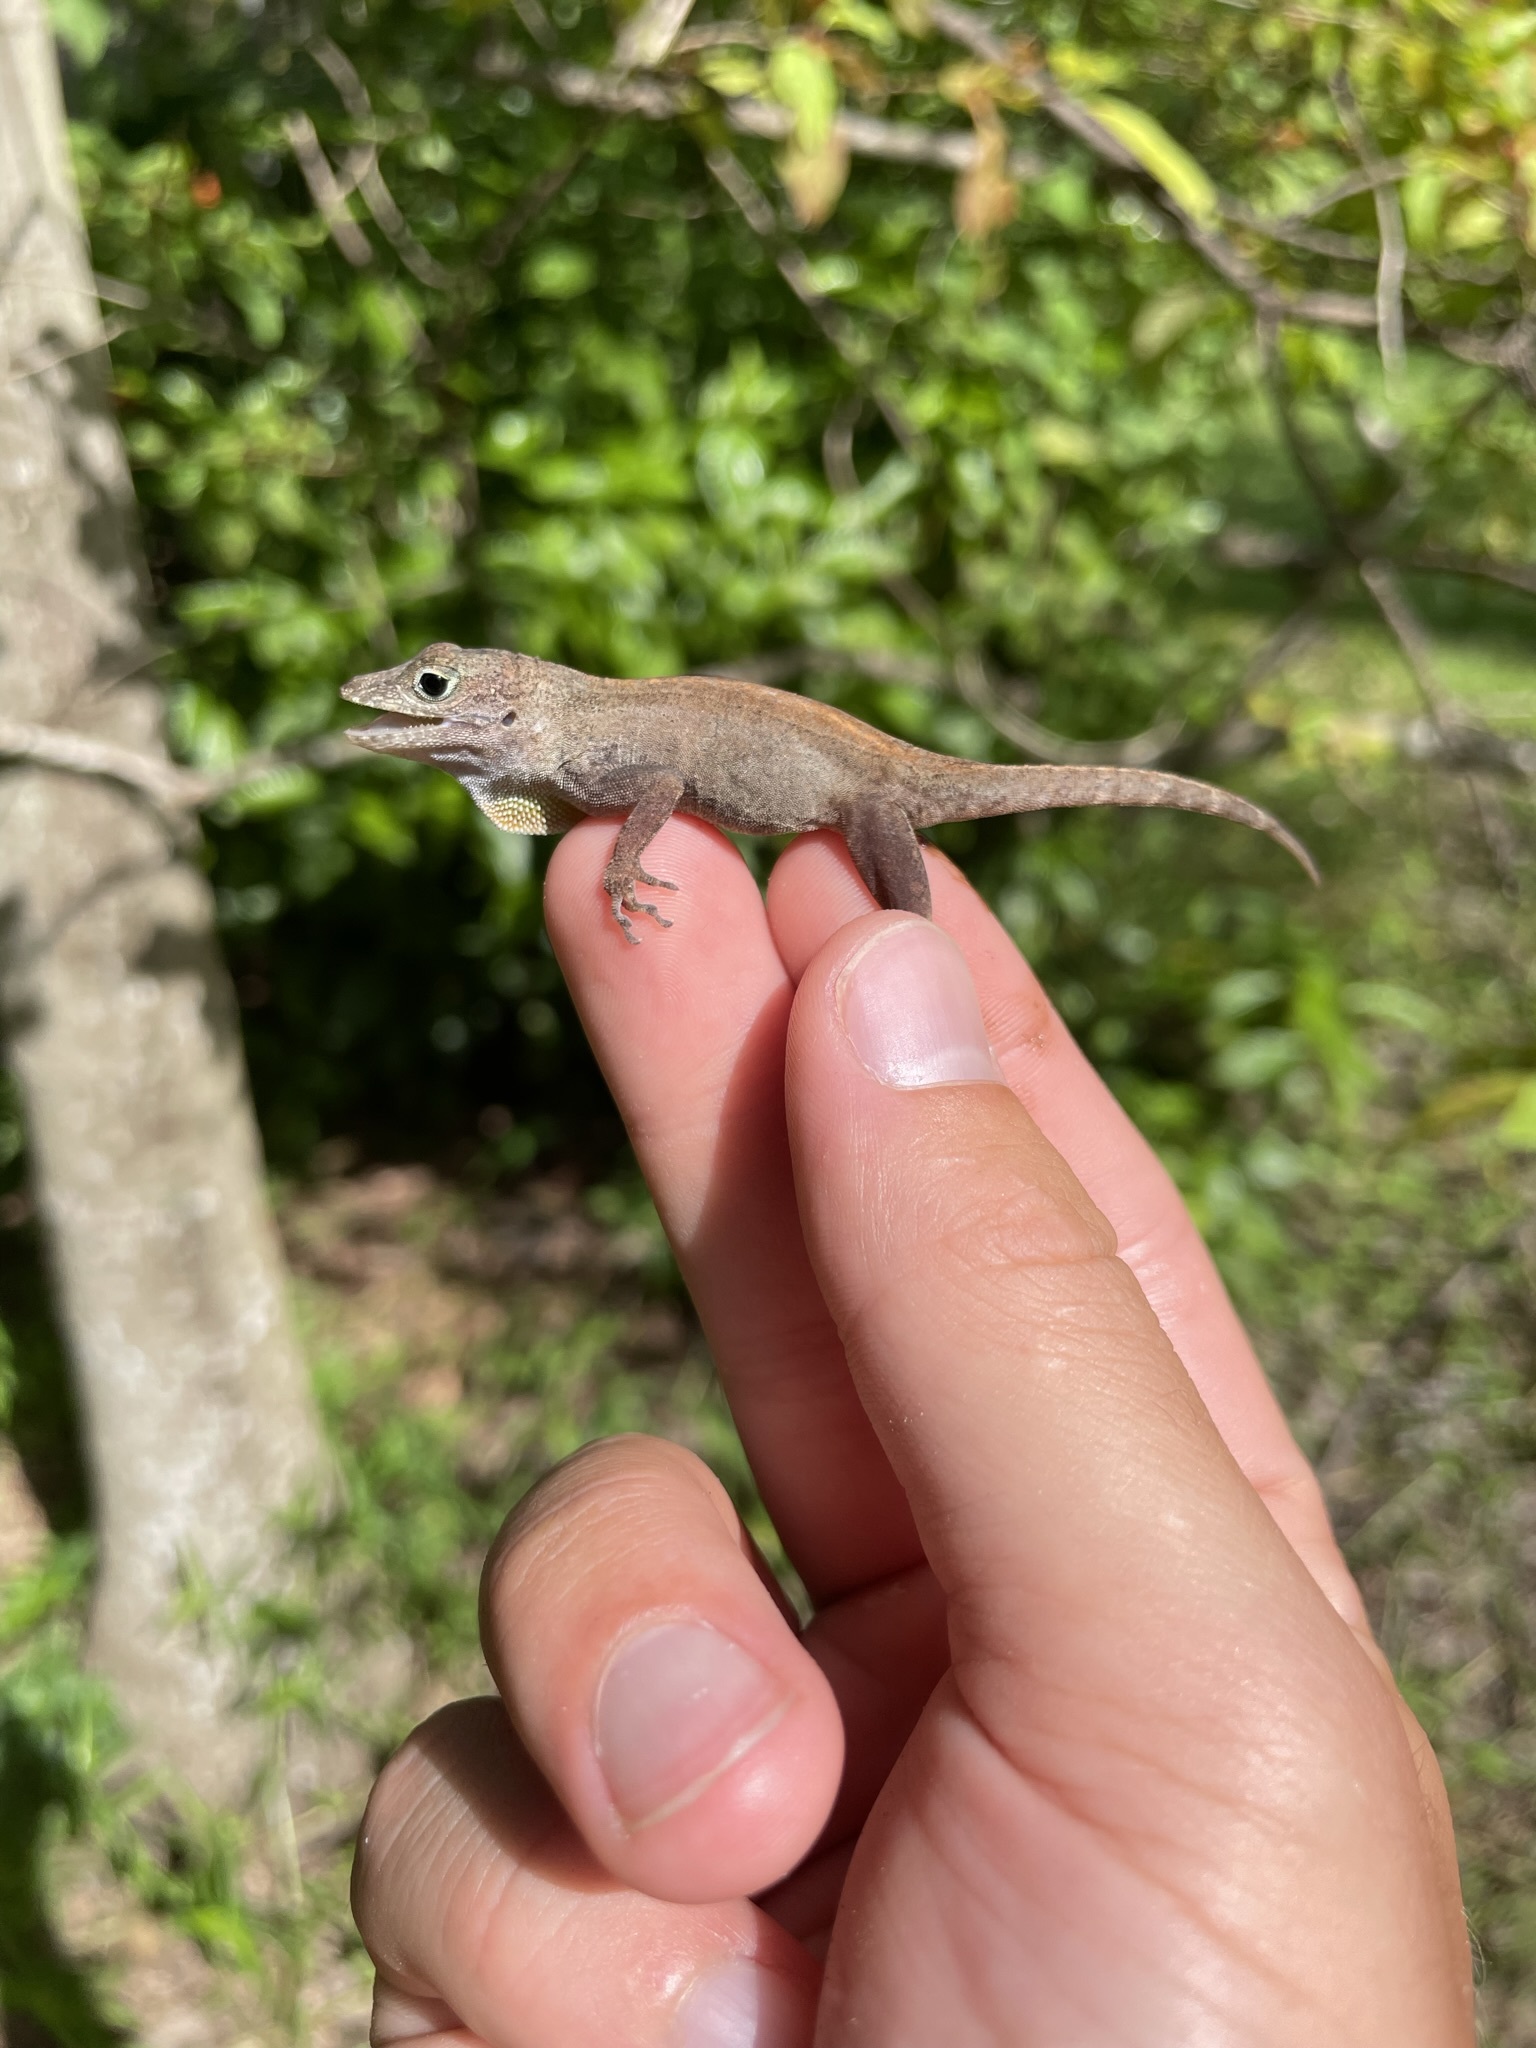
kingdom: Animalia
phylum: Chordata
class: Squamata
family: Dactyloidae
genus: Anolis
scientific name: Anolis cristatellus
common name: Crested anole
